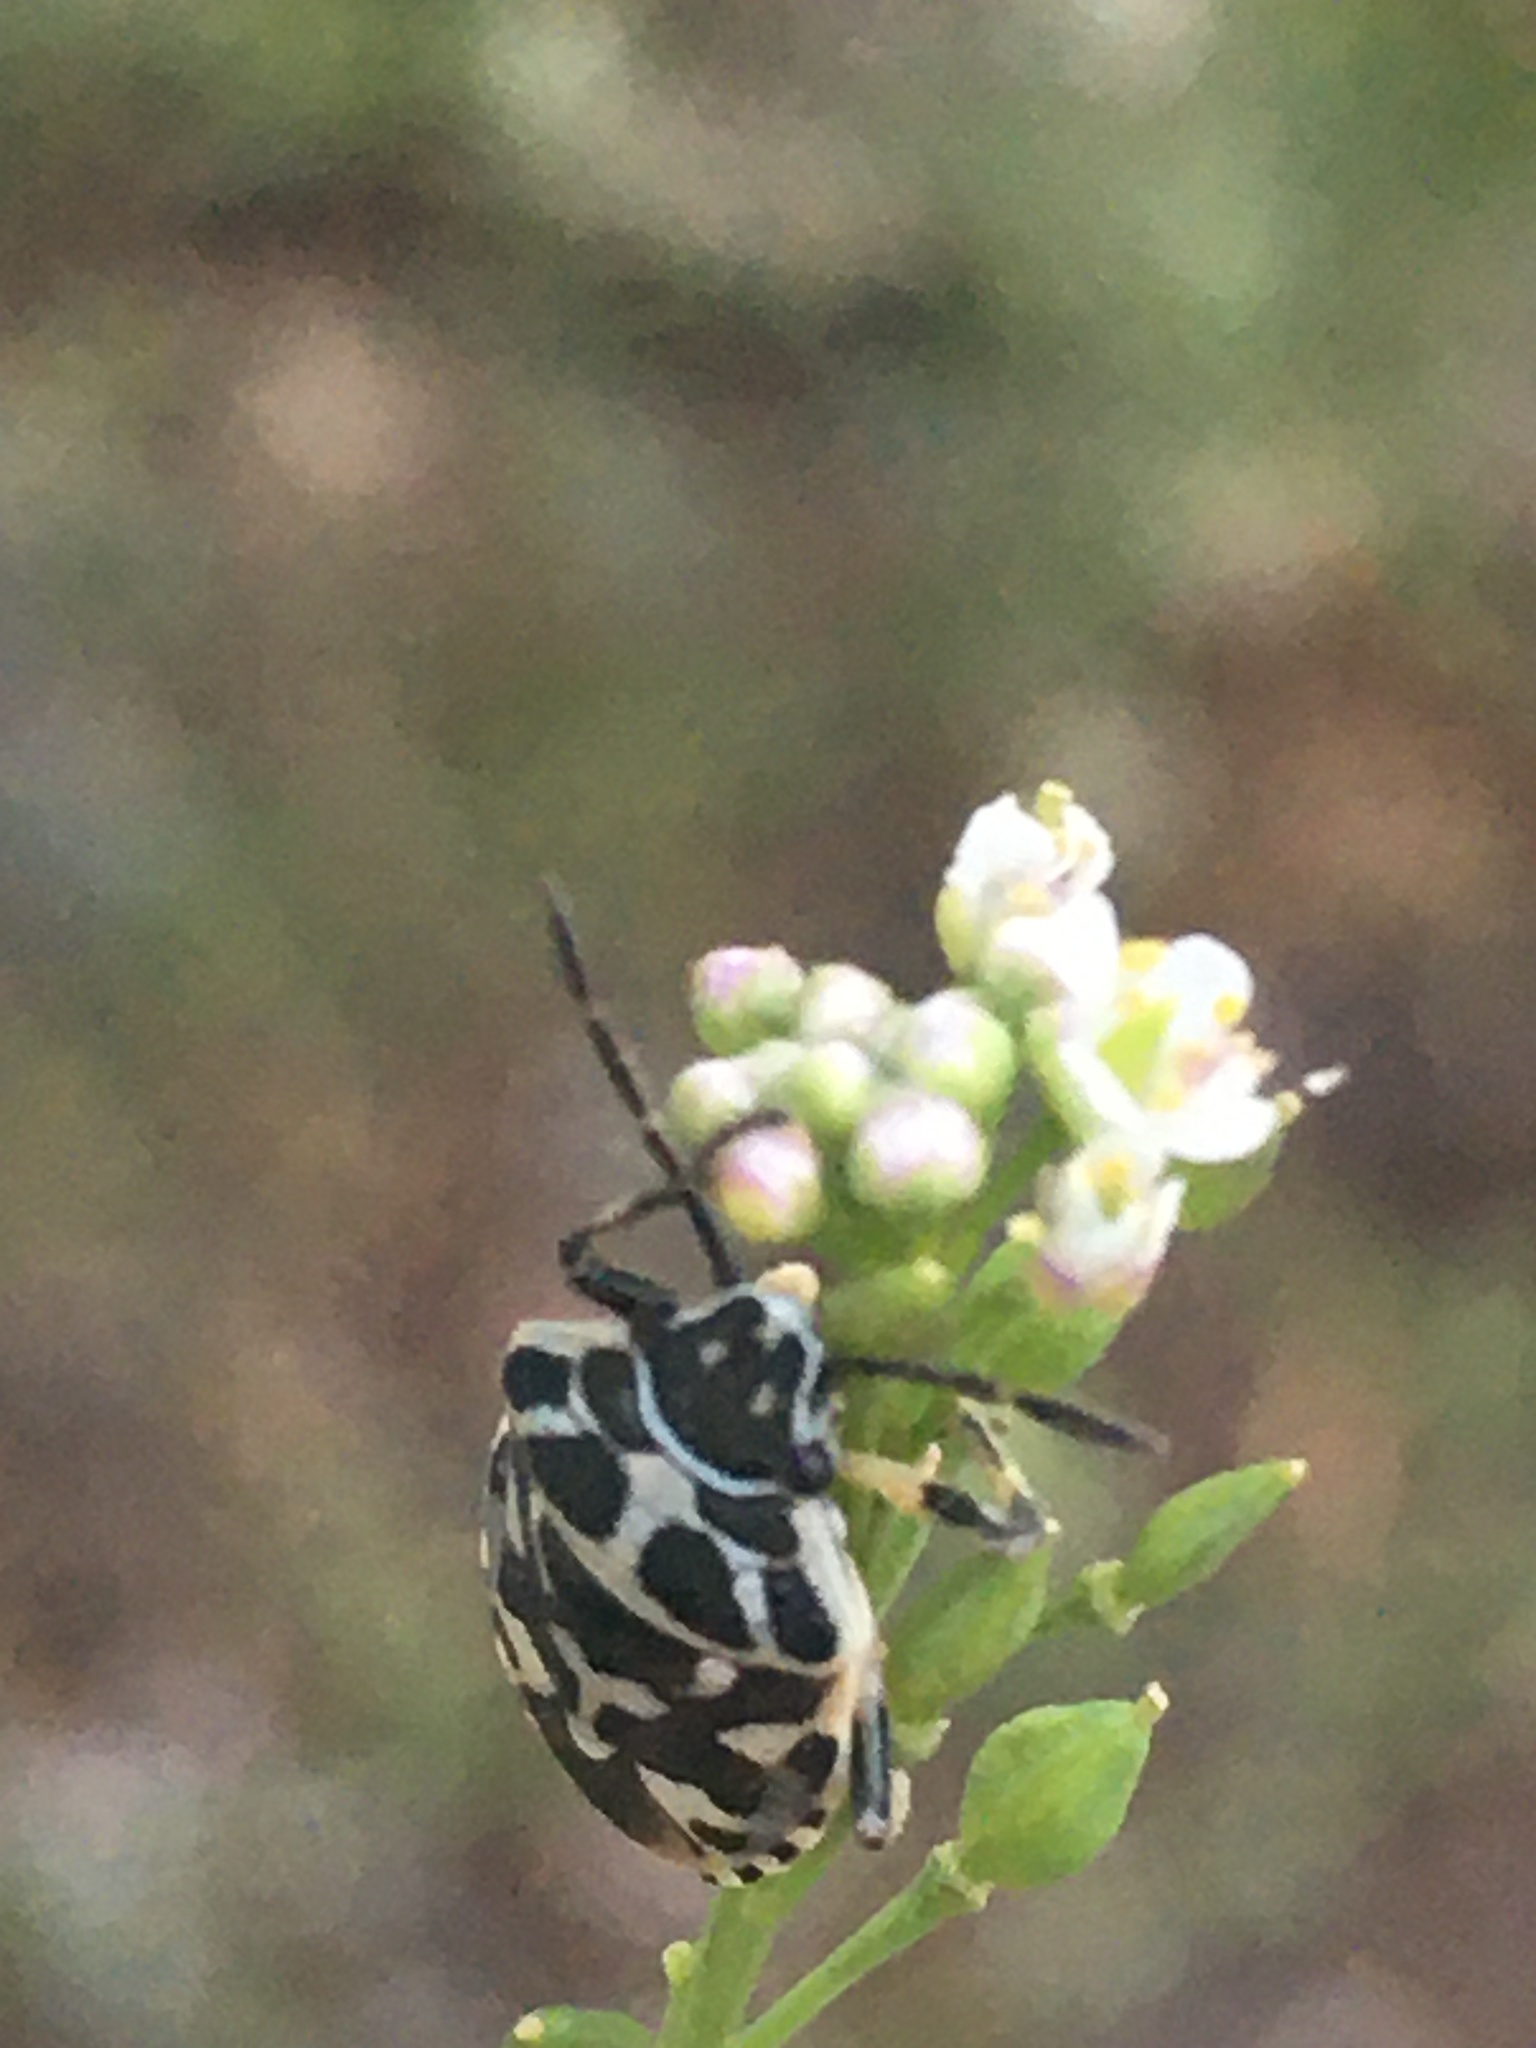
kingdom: Animalia
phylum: Arthropoda
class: Insecta
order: Hemiptera
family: Pentatomidae
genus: Eurydema
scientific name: Eurydema ornata
